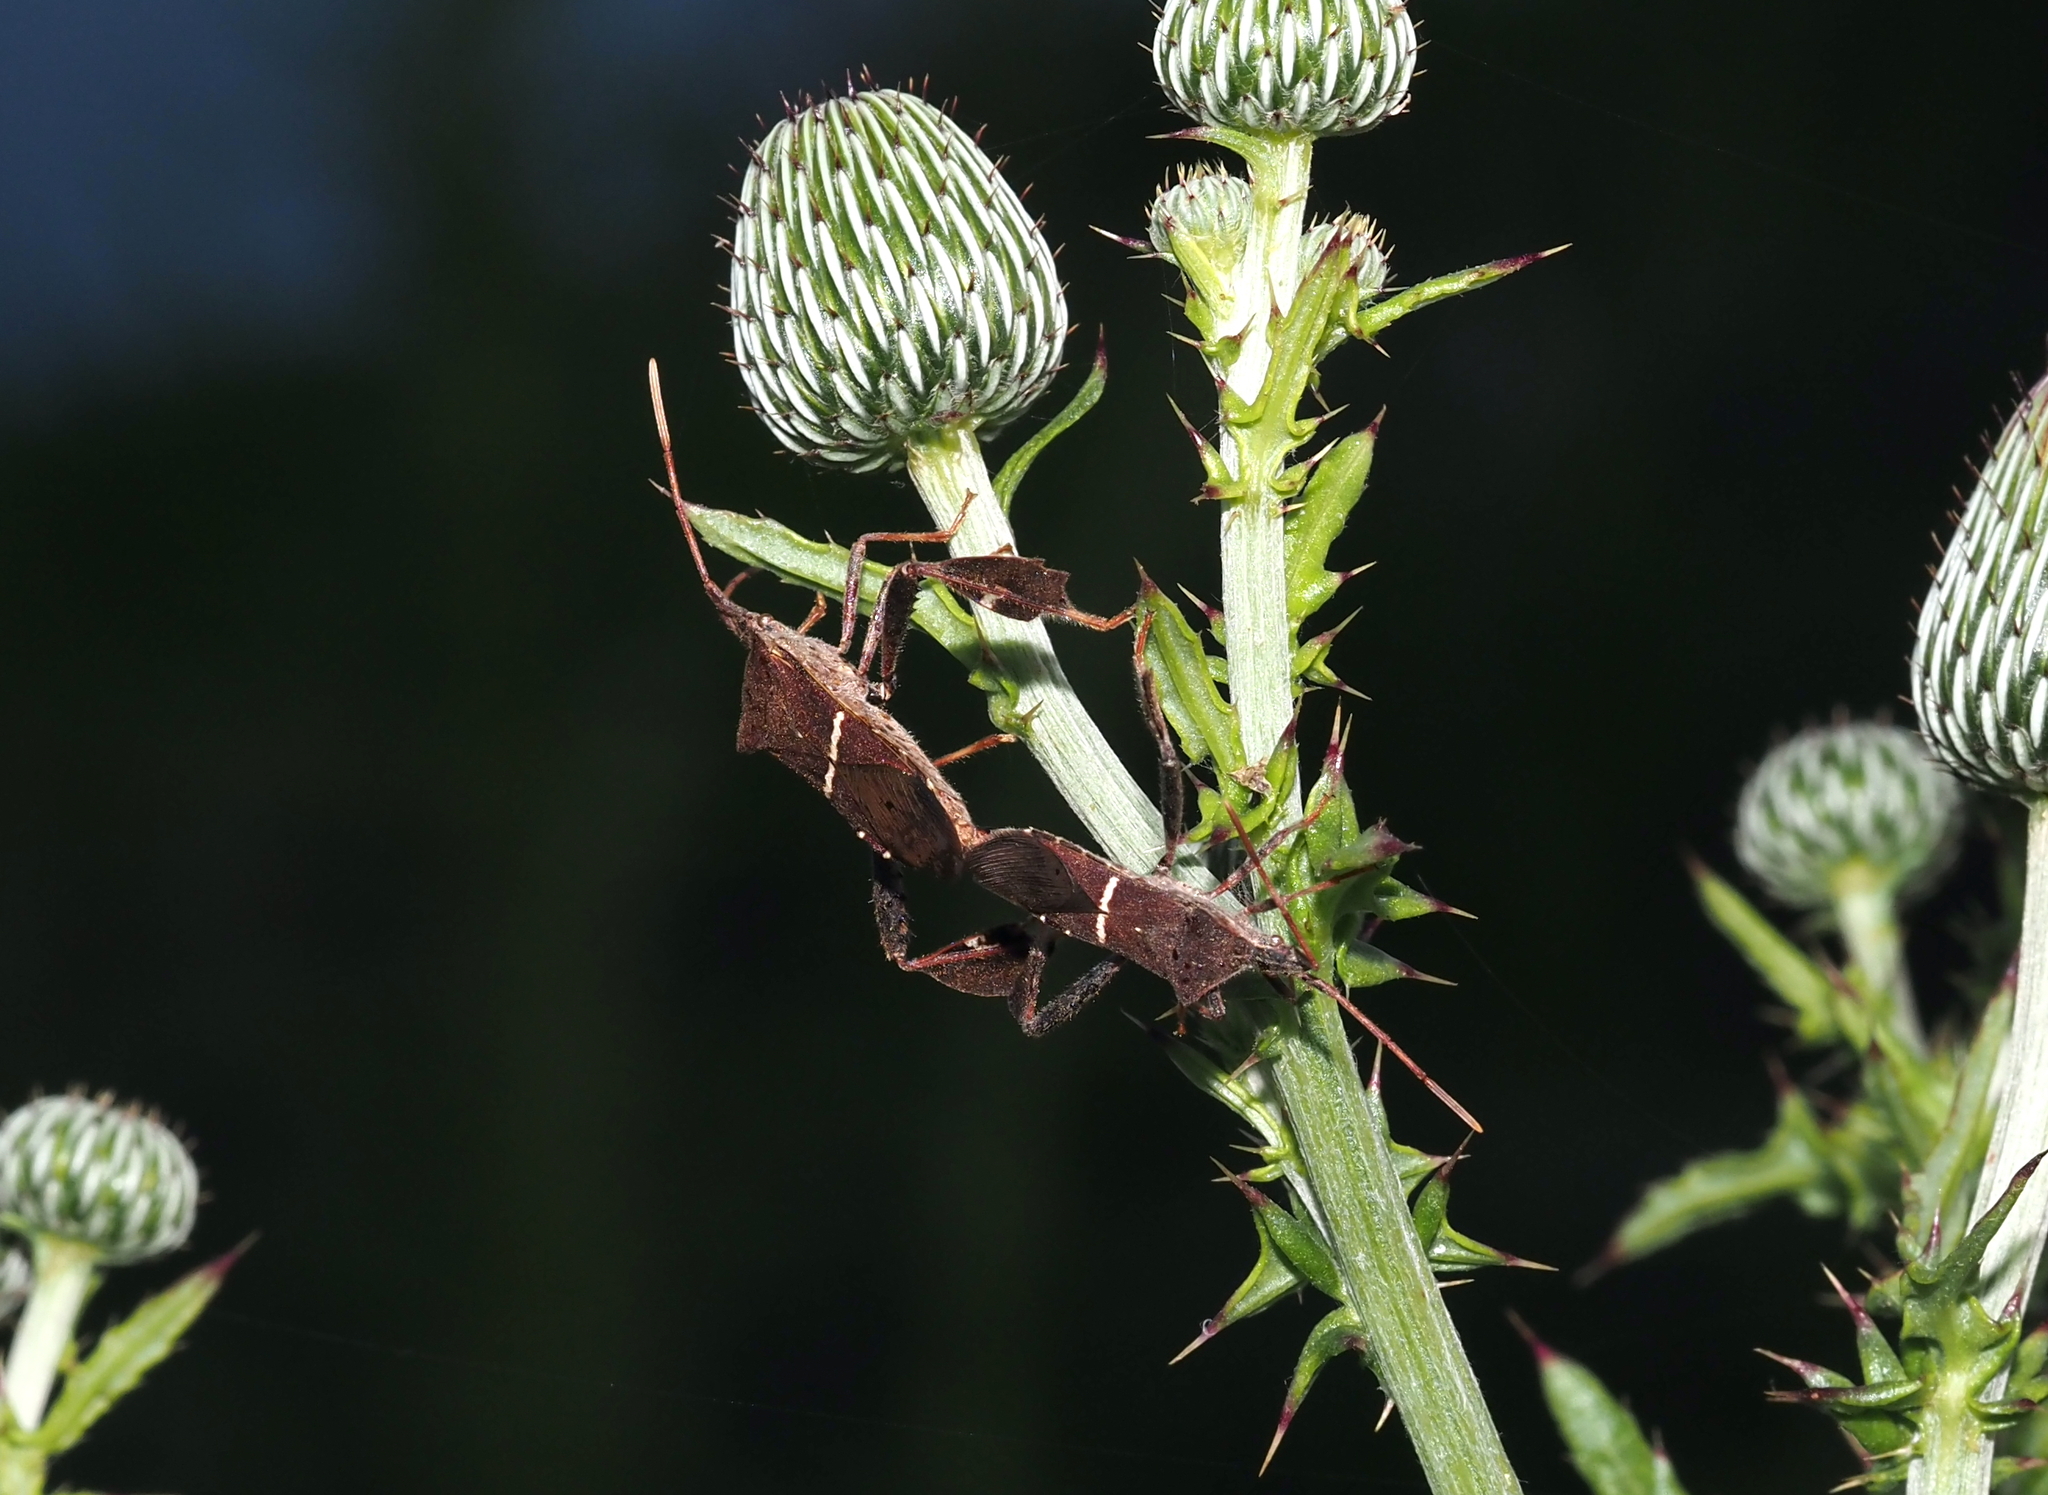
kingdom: Animalia
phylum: Arthropoda
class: Insecta
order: Hemiptera
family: Coreidae
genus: Leptoglossus
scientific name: Leptoglossus phyllopus
